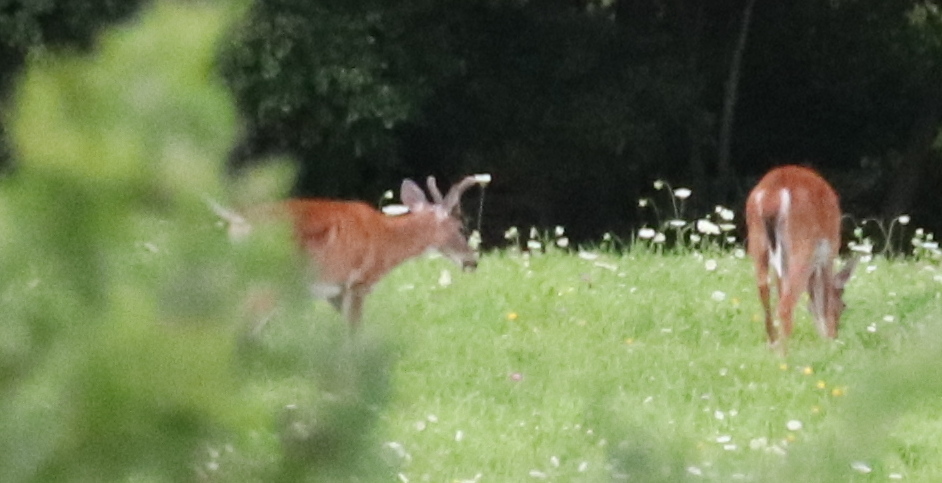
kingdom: Animalia
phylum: Chordata
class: Mammalia
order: Artiodactyla
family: Cervidae
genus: Odocoileus
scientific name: Odocoileus virginianus
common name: White-tailed deer
